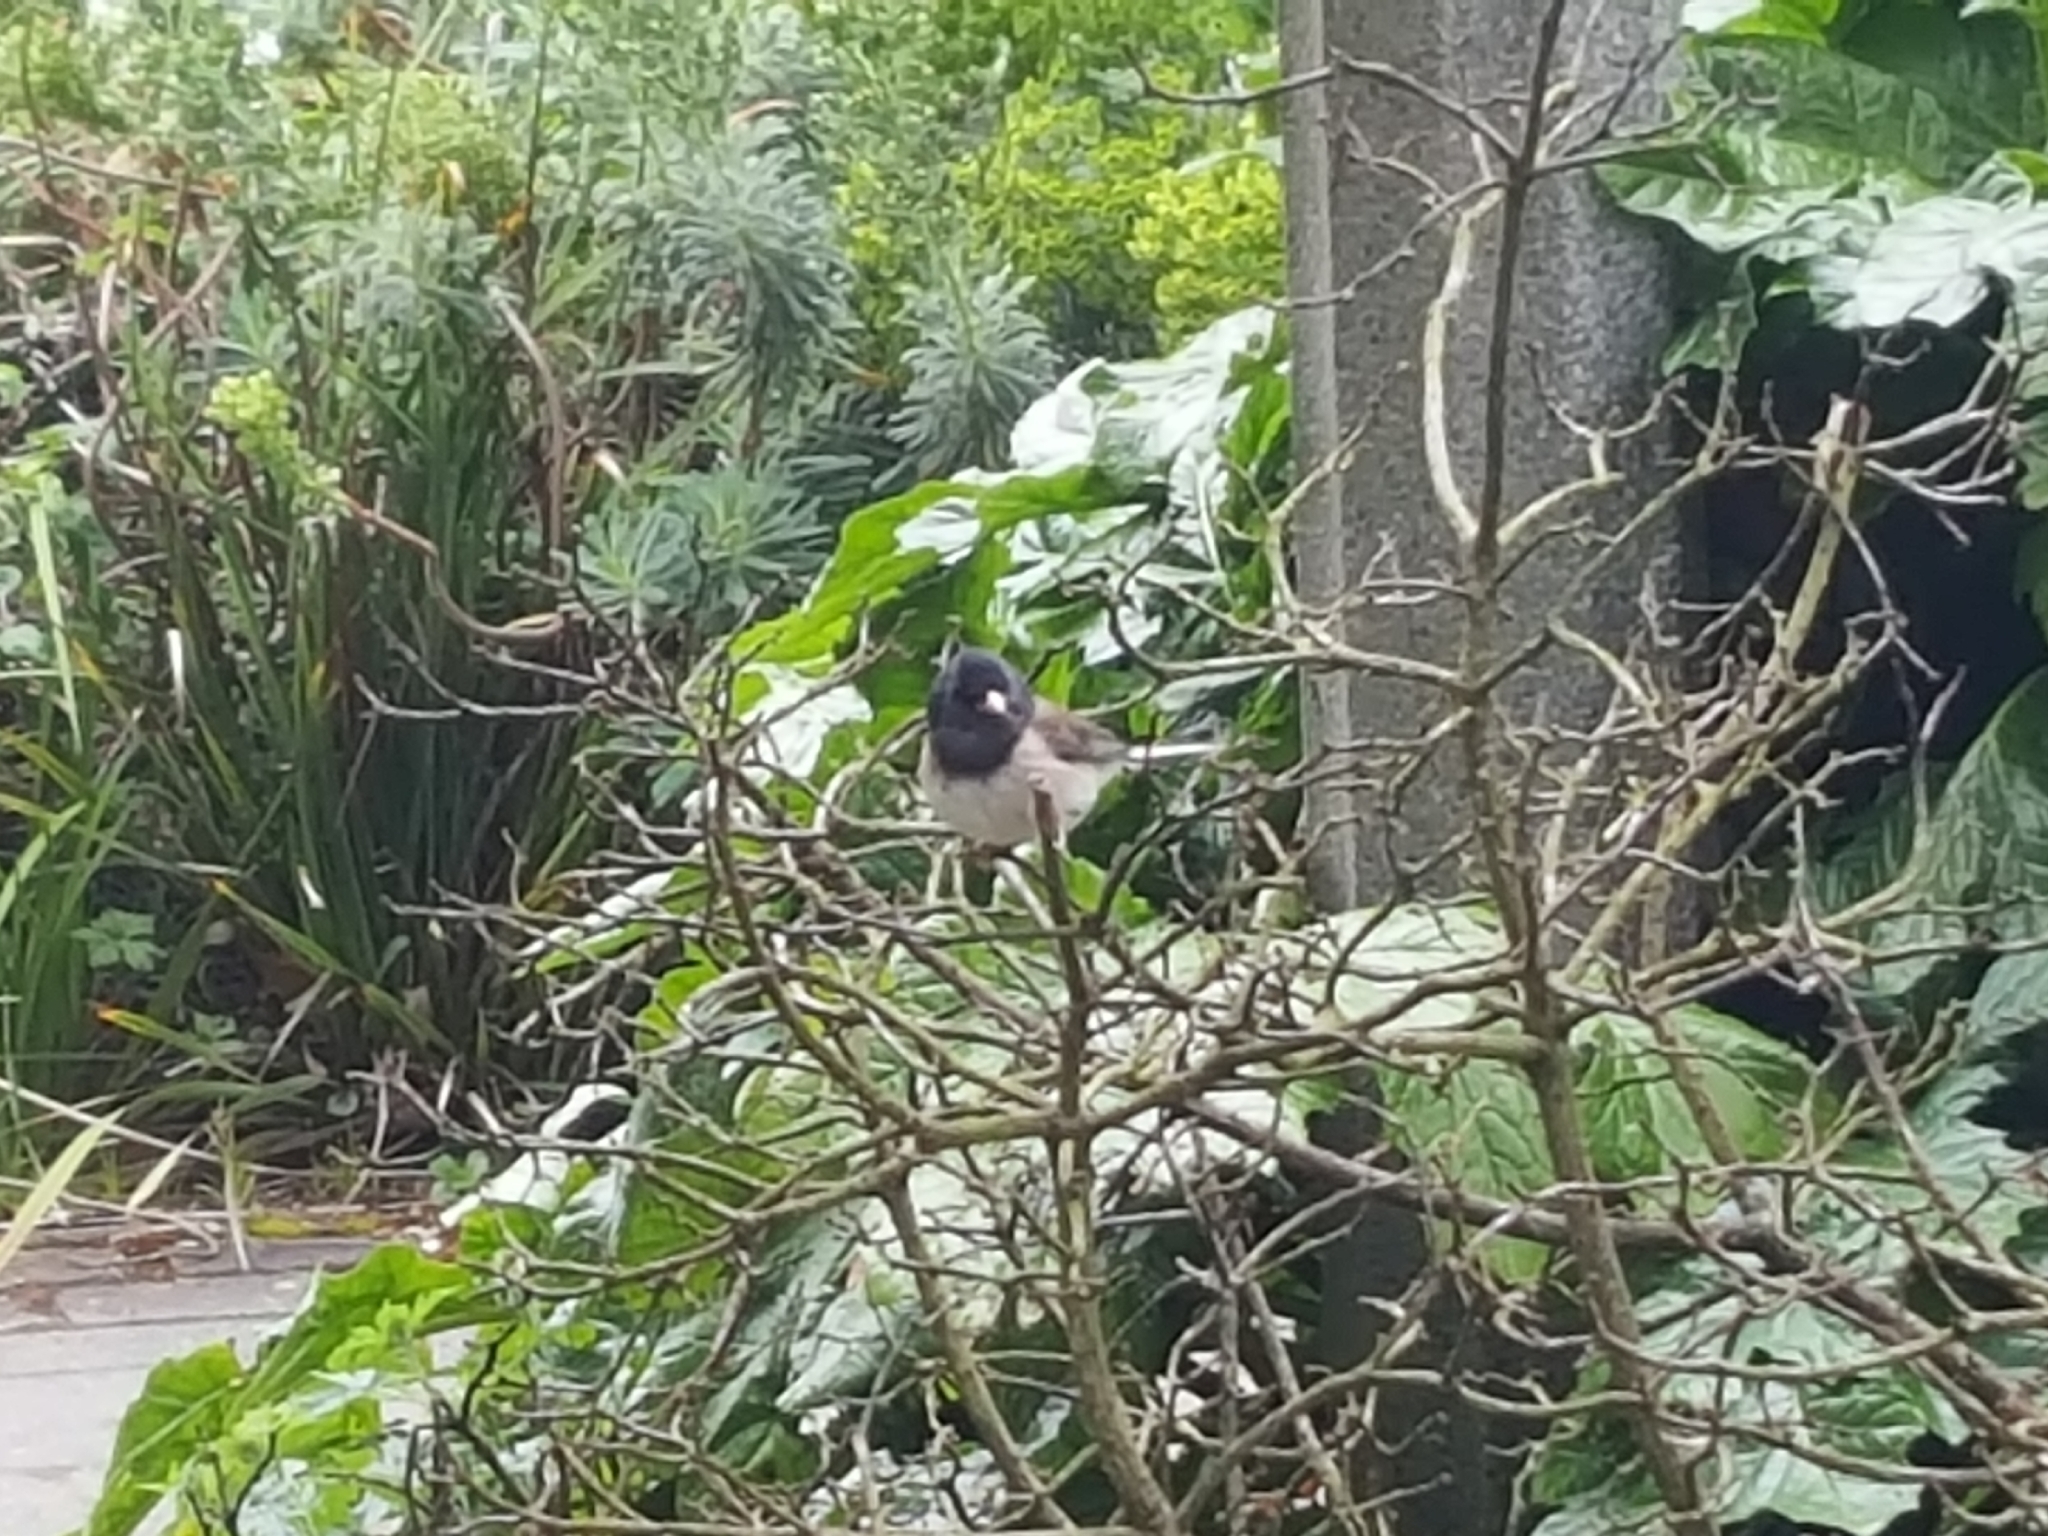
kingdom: Animalia
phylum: Chordata
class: Aves
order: Passeriformes
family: Passerellidae
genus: Junco
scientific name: Junco hyemalis
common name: Dark-eyed junco
